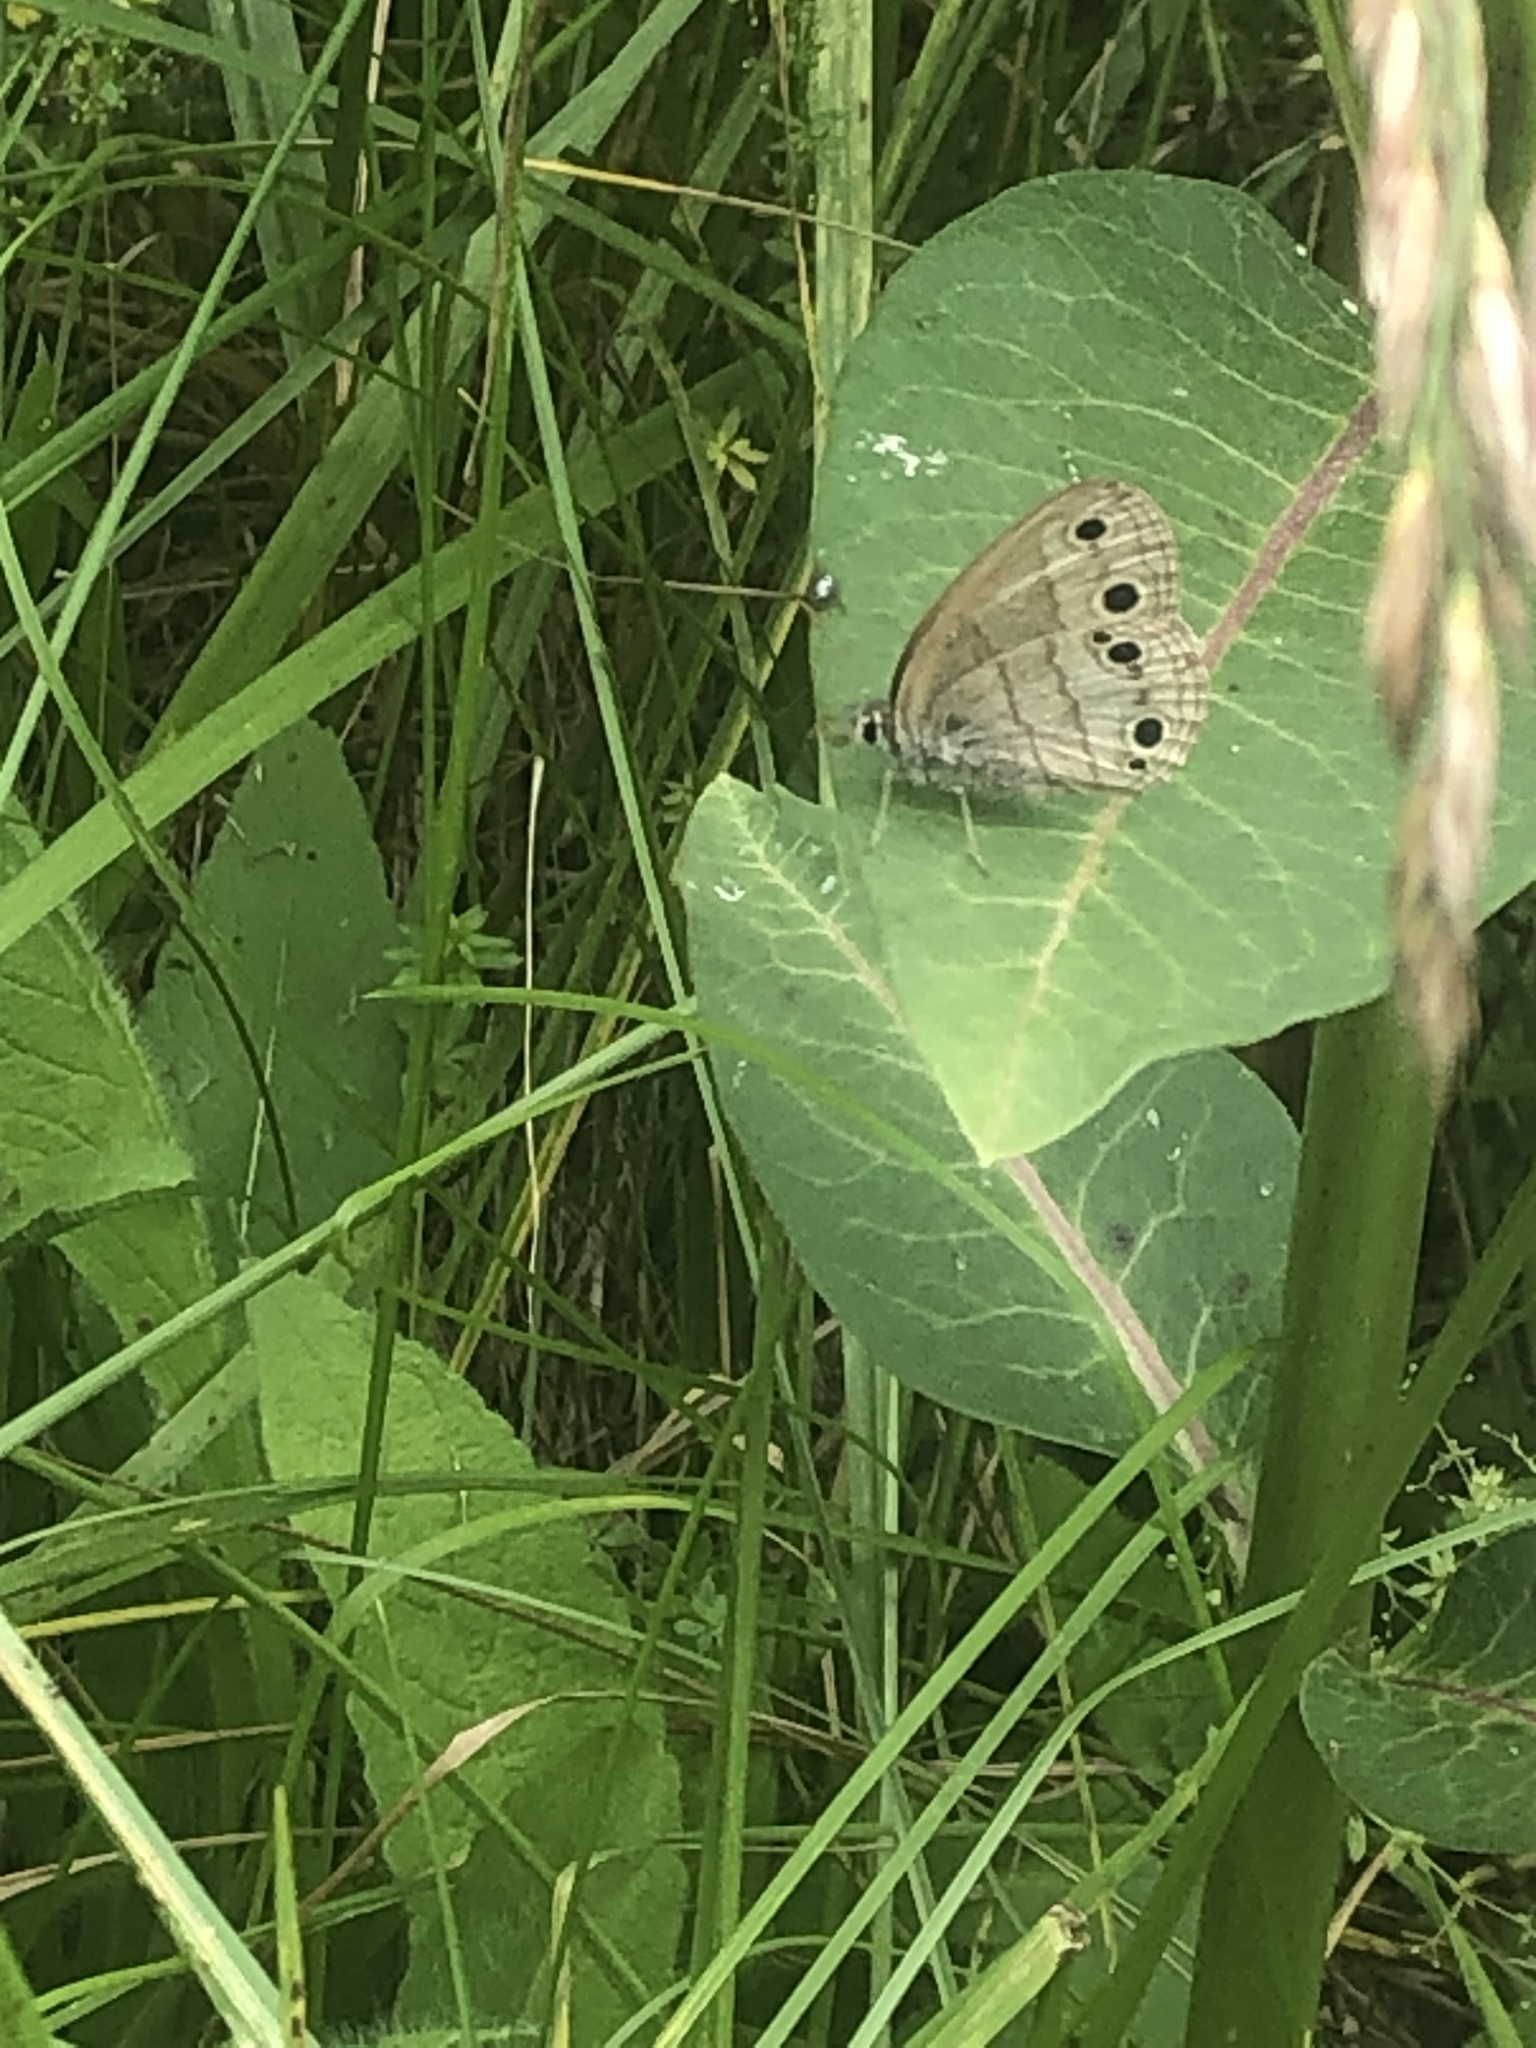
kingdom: Animalia
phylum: Arthropoda
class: Insecta
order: Lepidoptera
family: Nymphalidae
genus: Euptychia
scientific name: Euptychia cymela
